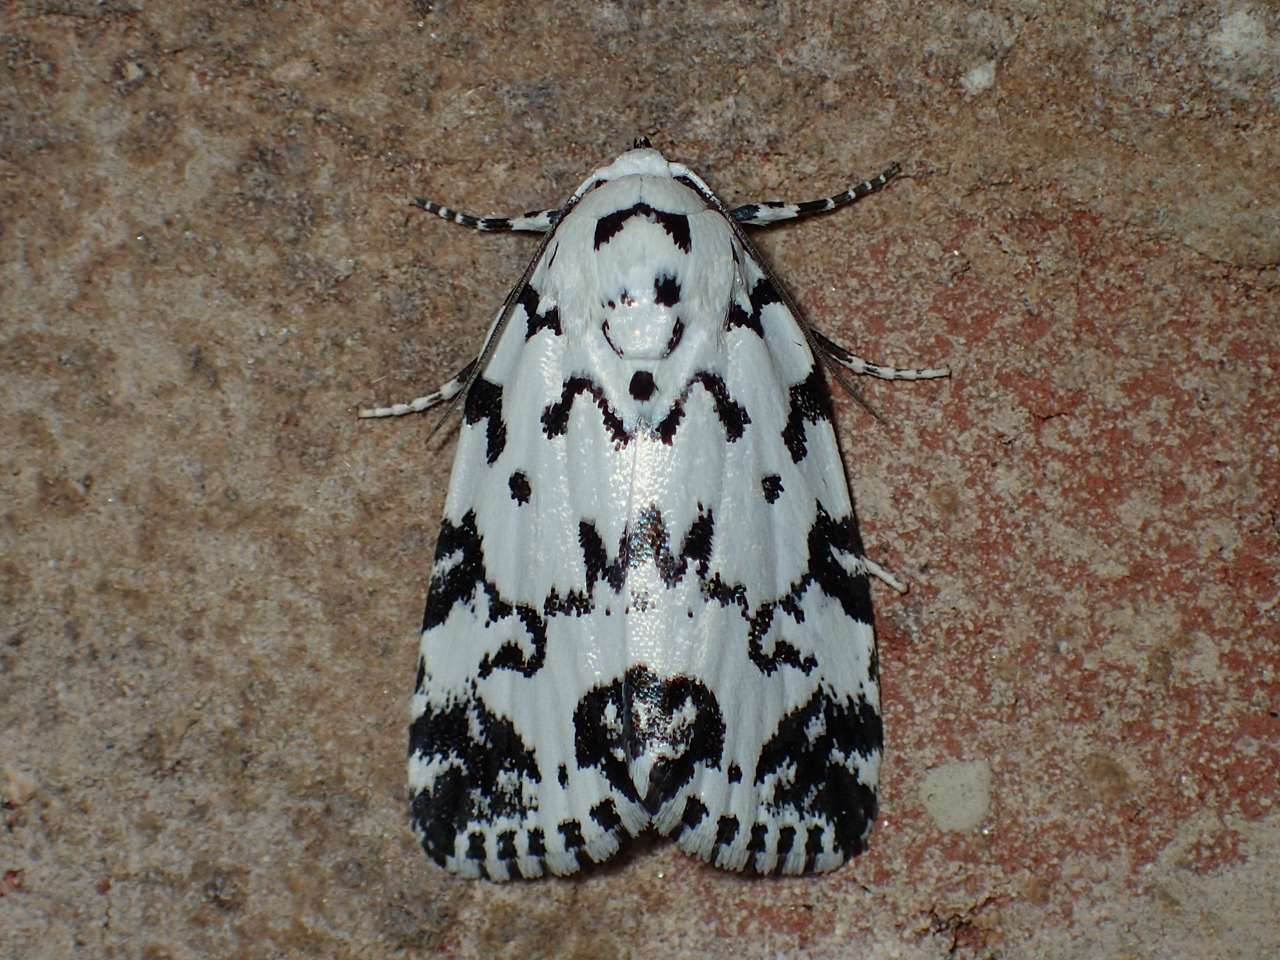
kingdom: Animalia
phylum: Arthropoda
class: Insecta
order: Lepidoptera
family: Noctuidae
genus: Polygrammate
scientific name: Polygrammate hebraeicum
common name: Hebrew moth
